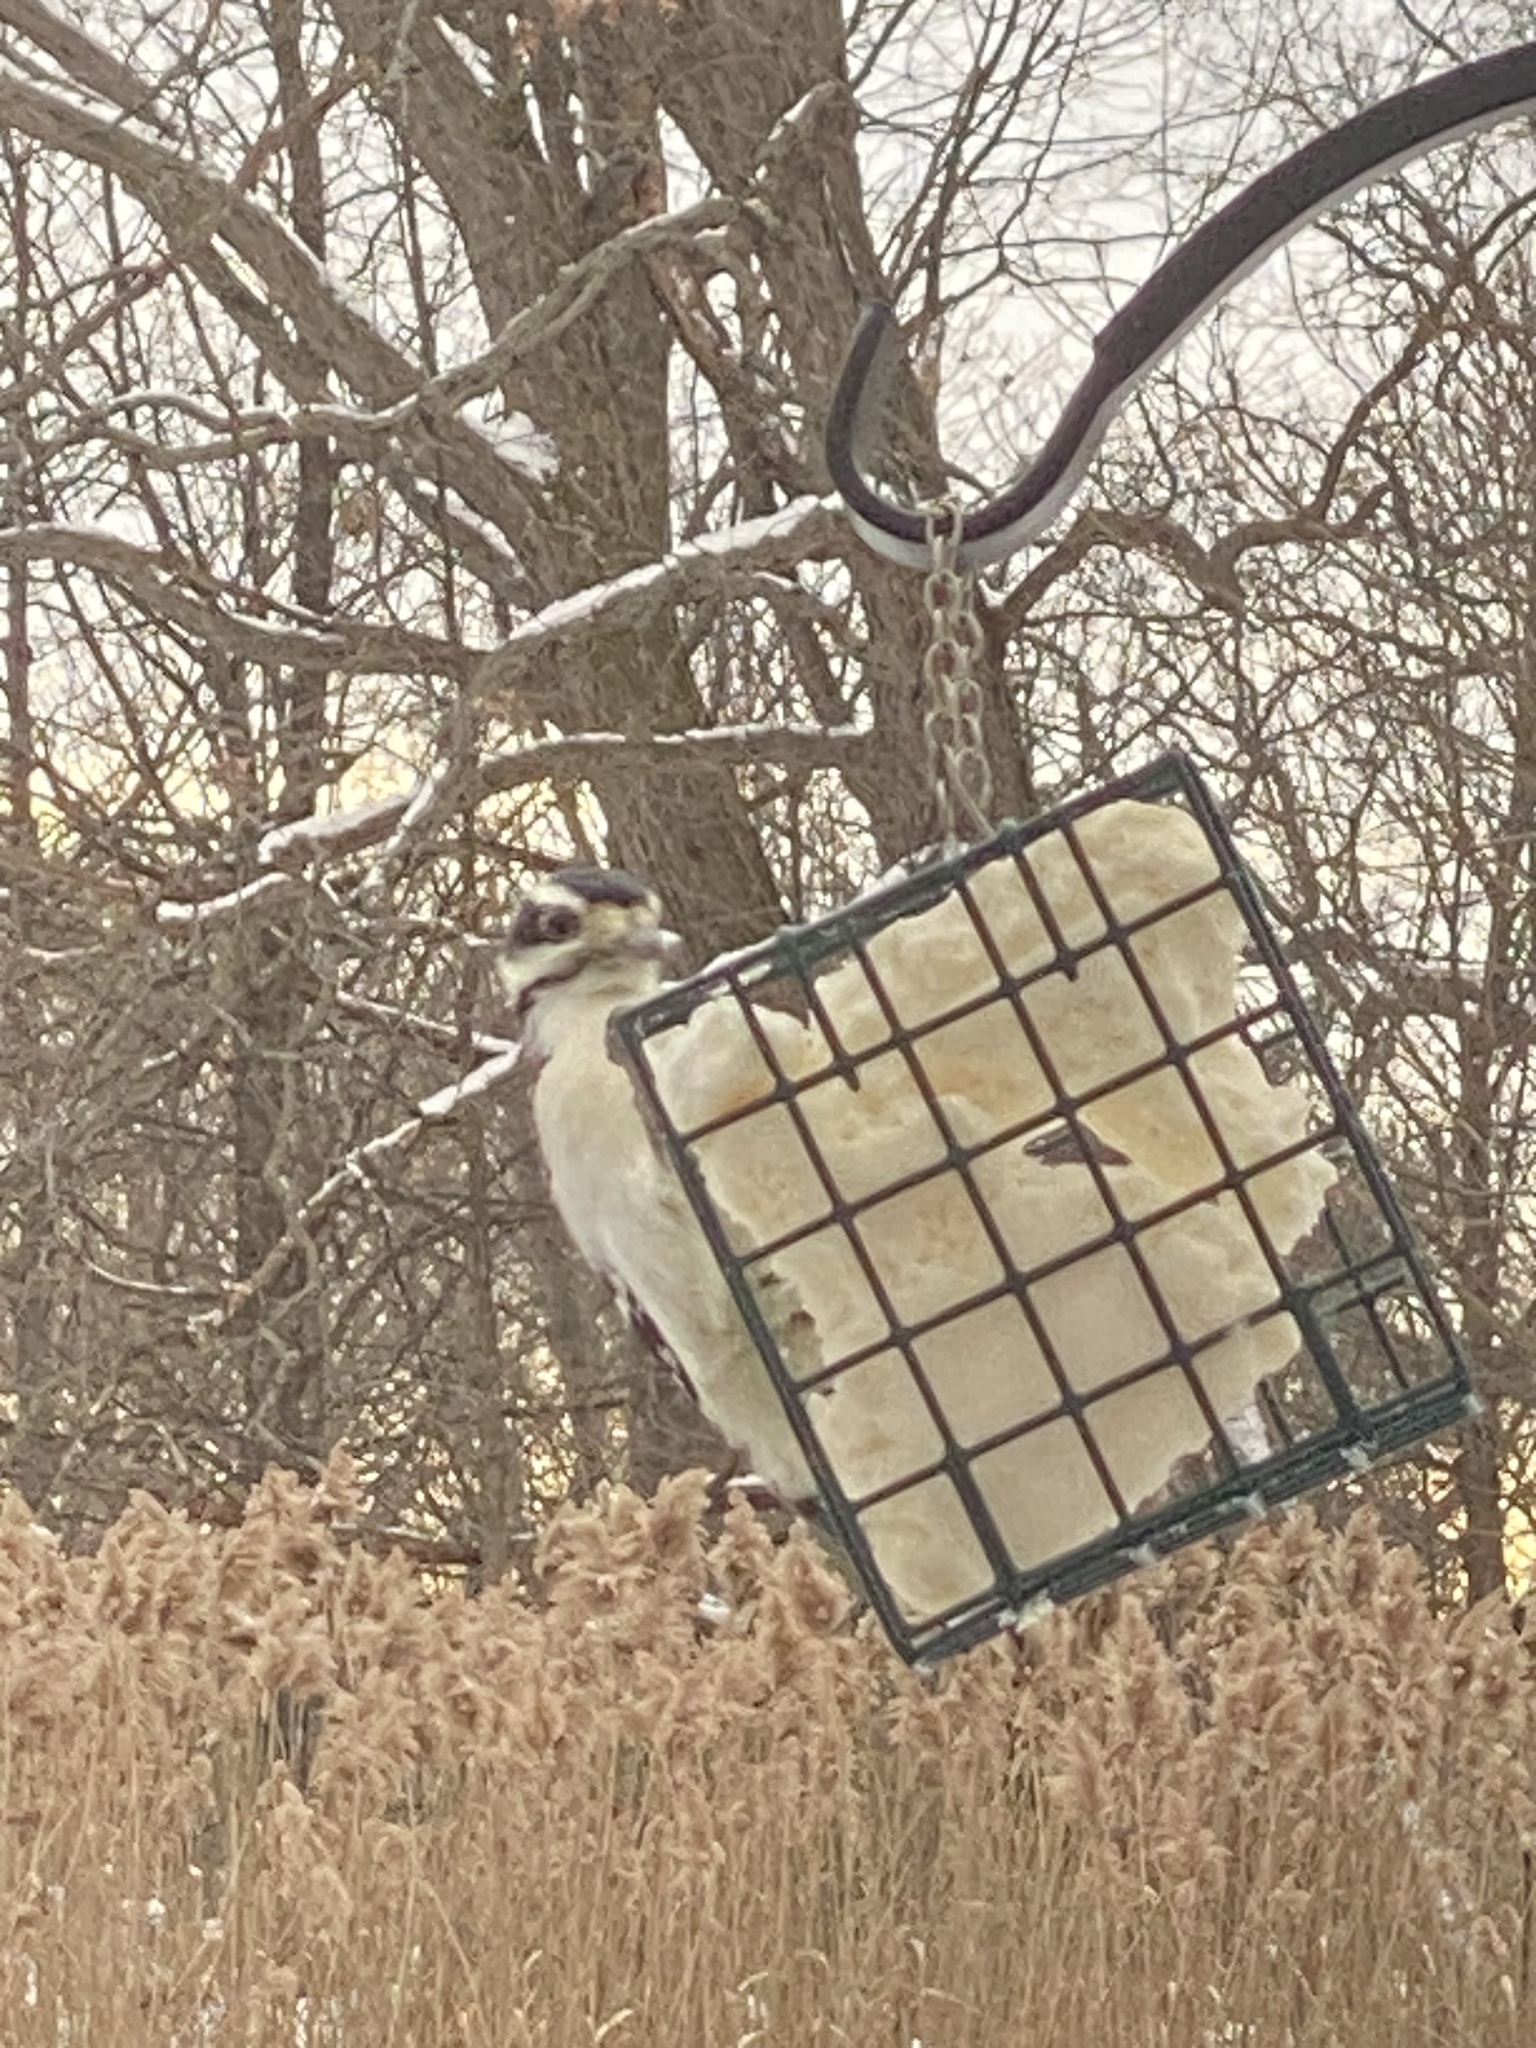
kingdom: Animalia
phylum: Chordata
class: Aves
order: Piciformes
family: Picidae
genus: Leuconotopicus
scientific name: Leuconotopicus villosus
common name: Hairy woodpecker
